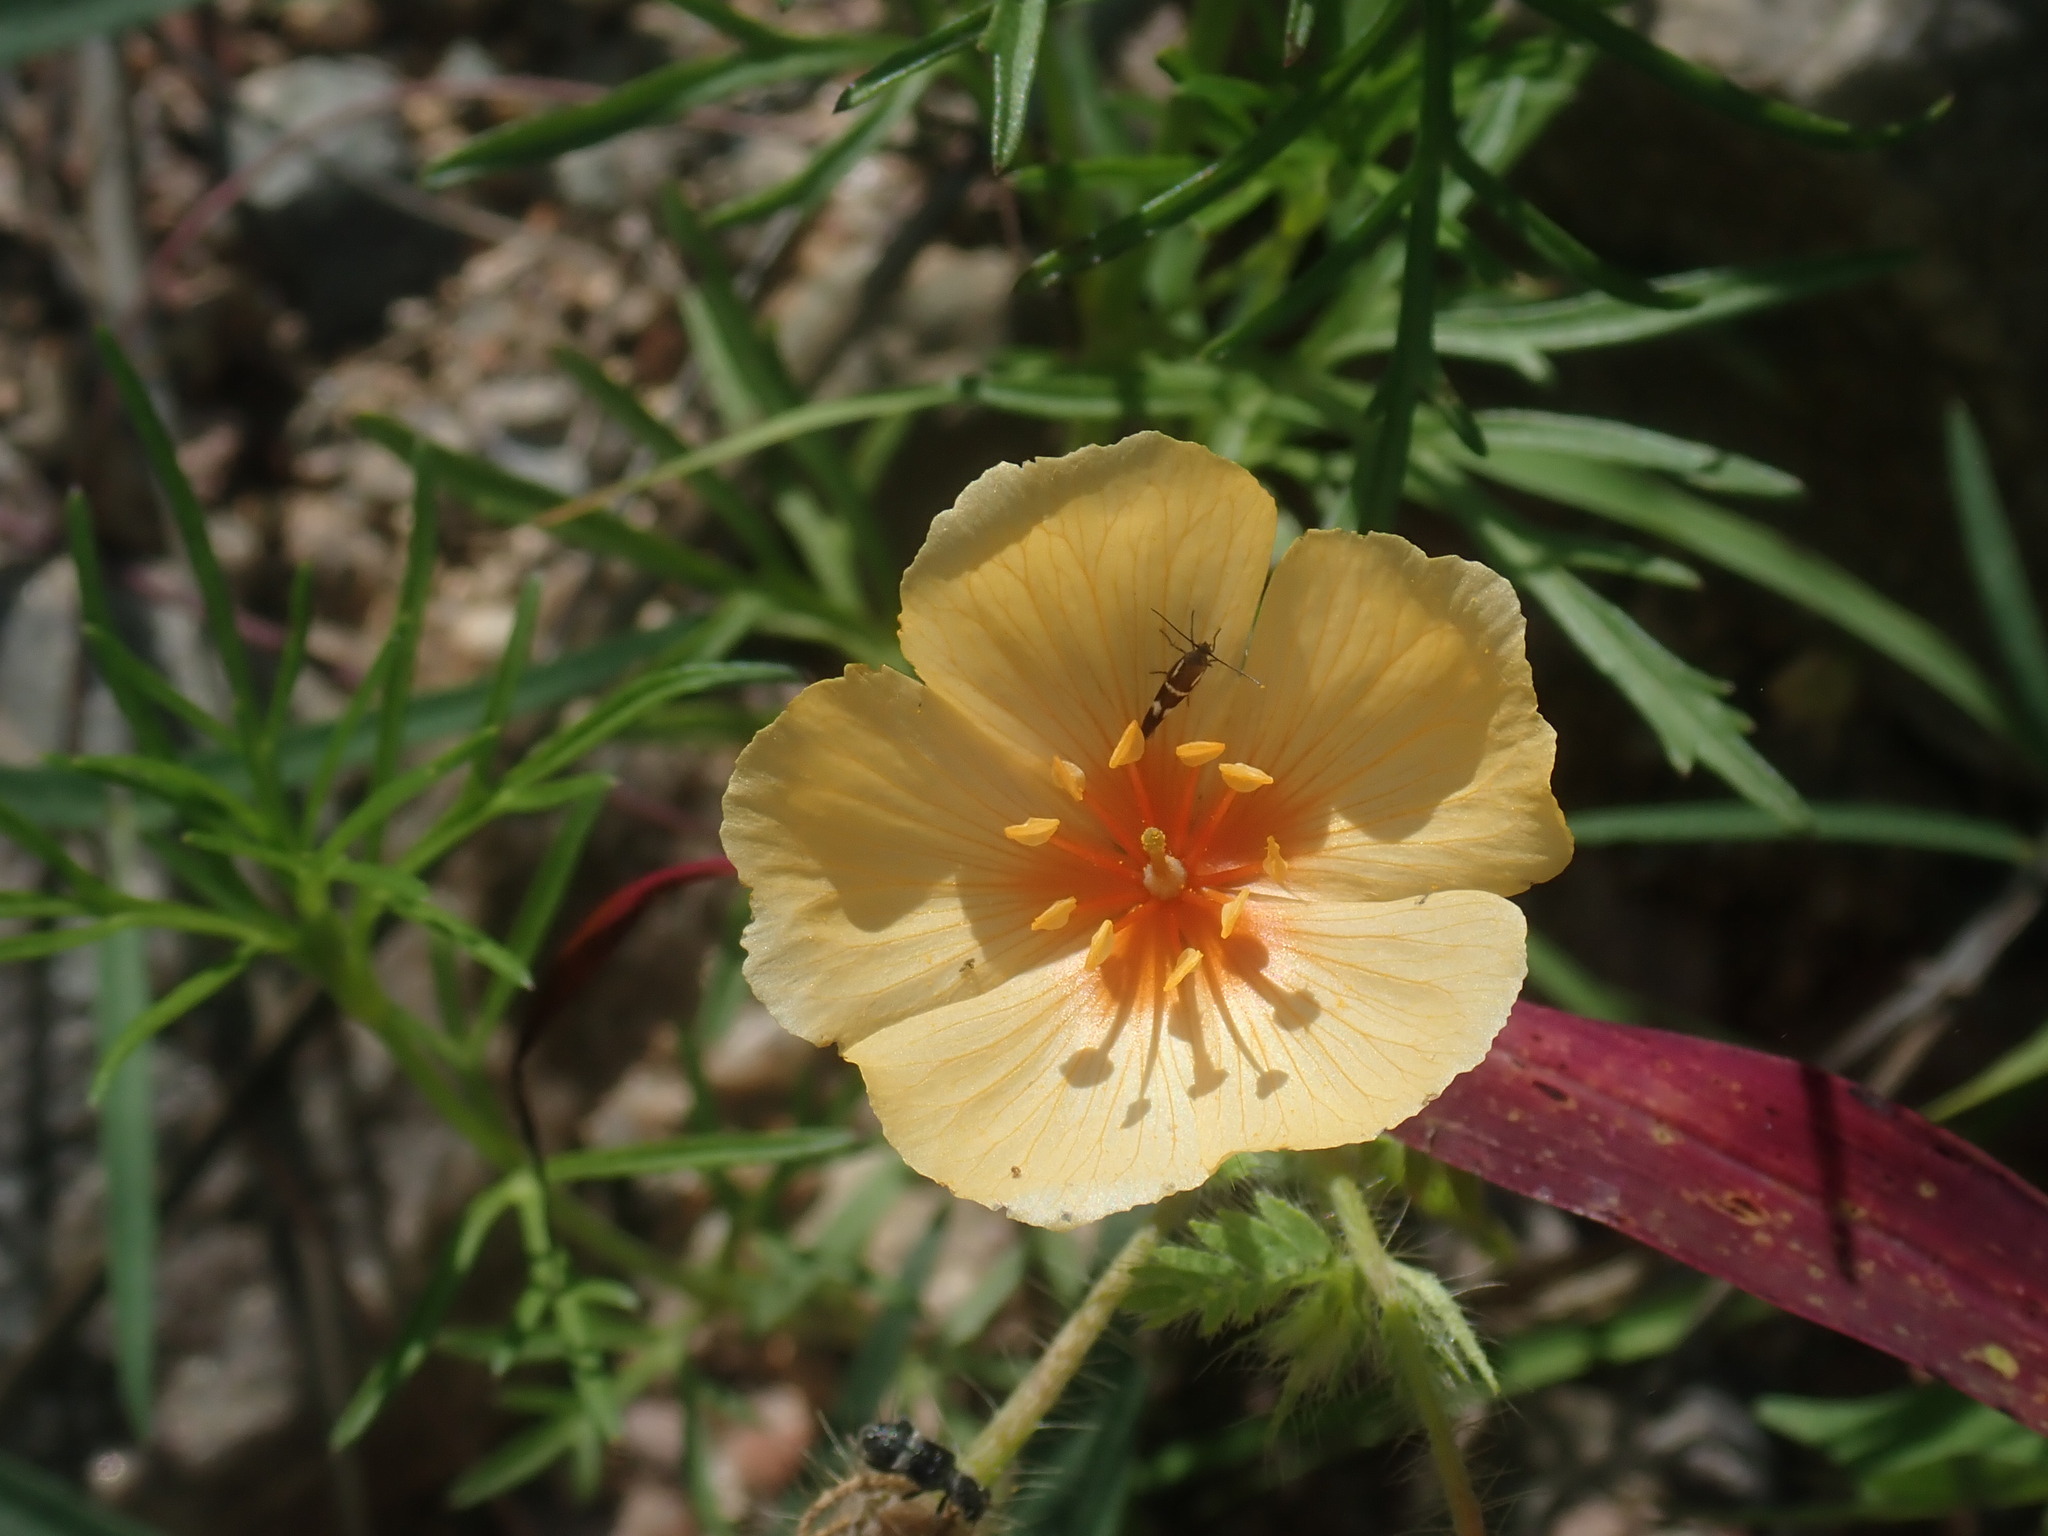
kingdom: Plantae
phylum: Tracheophyta
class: Magnoliopsida
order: Zygophyllales
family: Zygophyllaceae
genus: Kallstroemia
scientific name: Kallstroemia grandiflora
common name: Arizona-poppy
